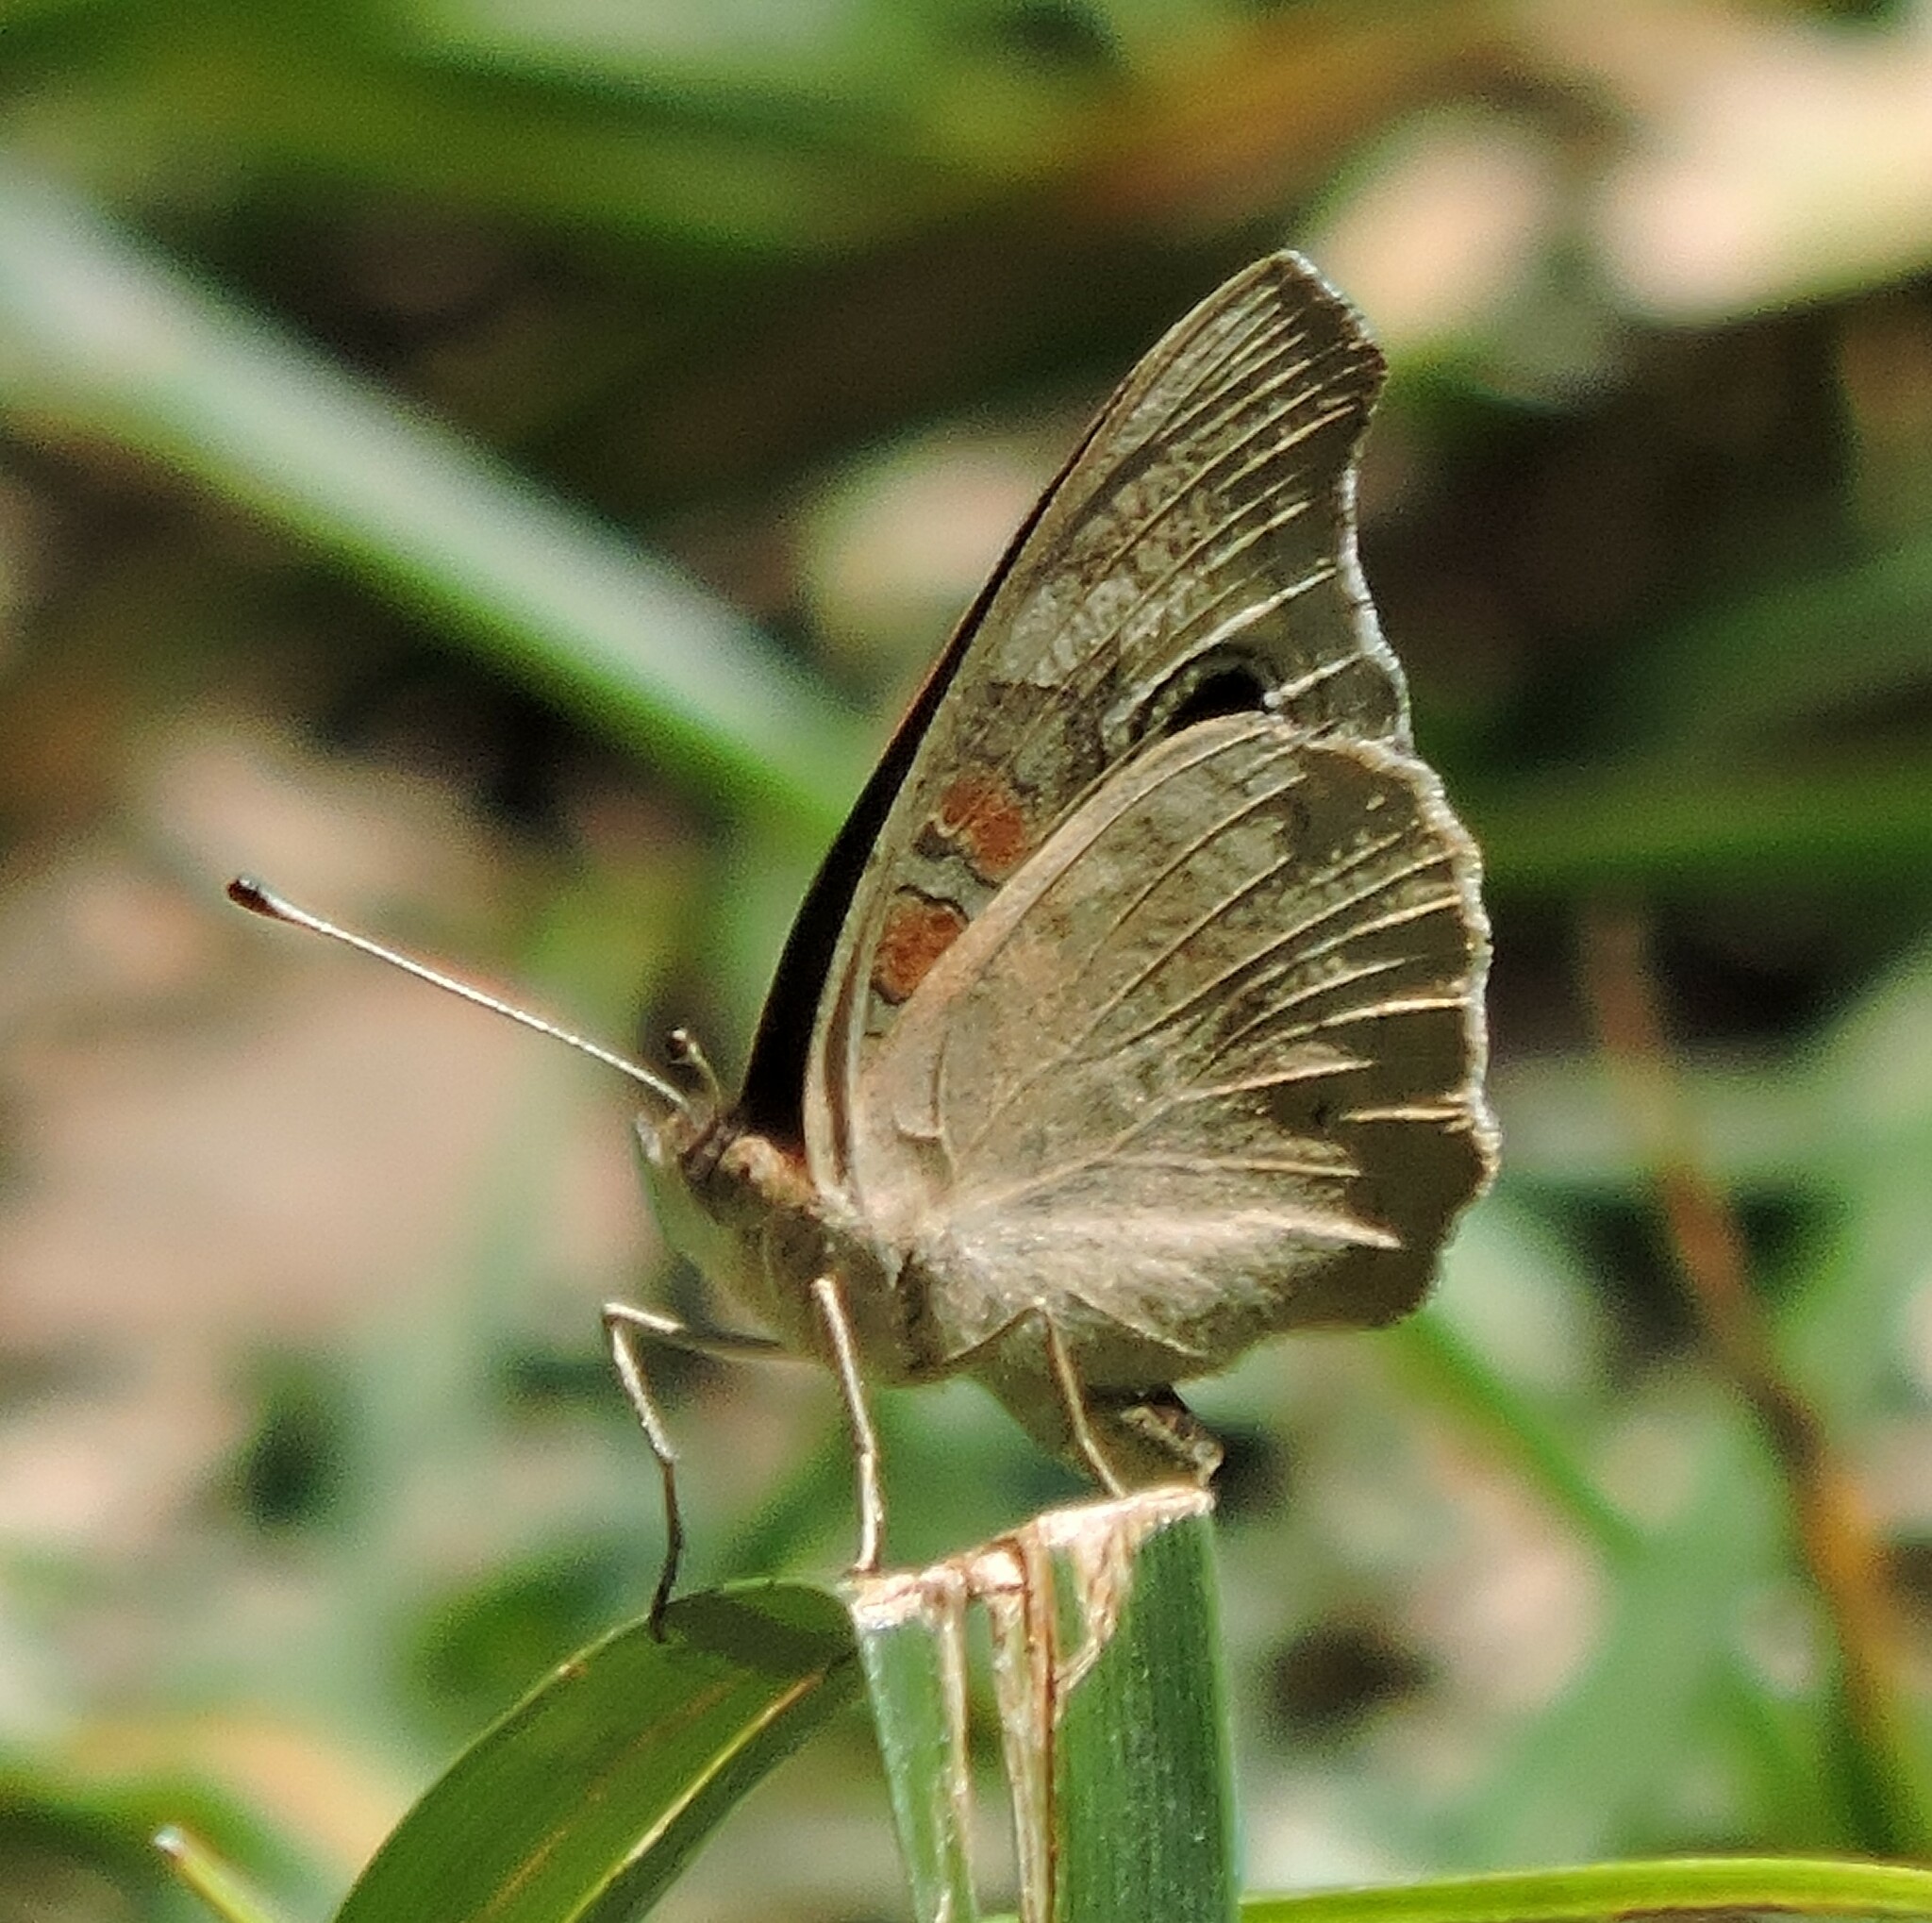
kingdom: Animalia
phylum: Arthropoda
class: Insecta
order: Lepidoptera
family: Nymphalidae
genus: Junonia
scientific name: Junonia grisea
